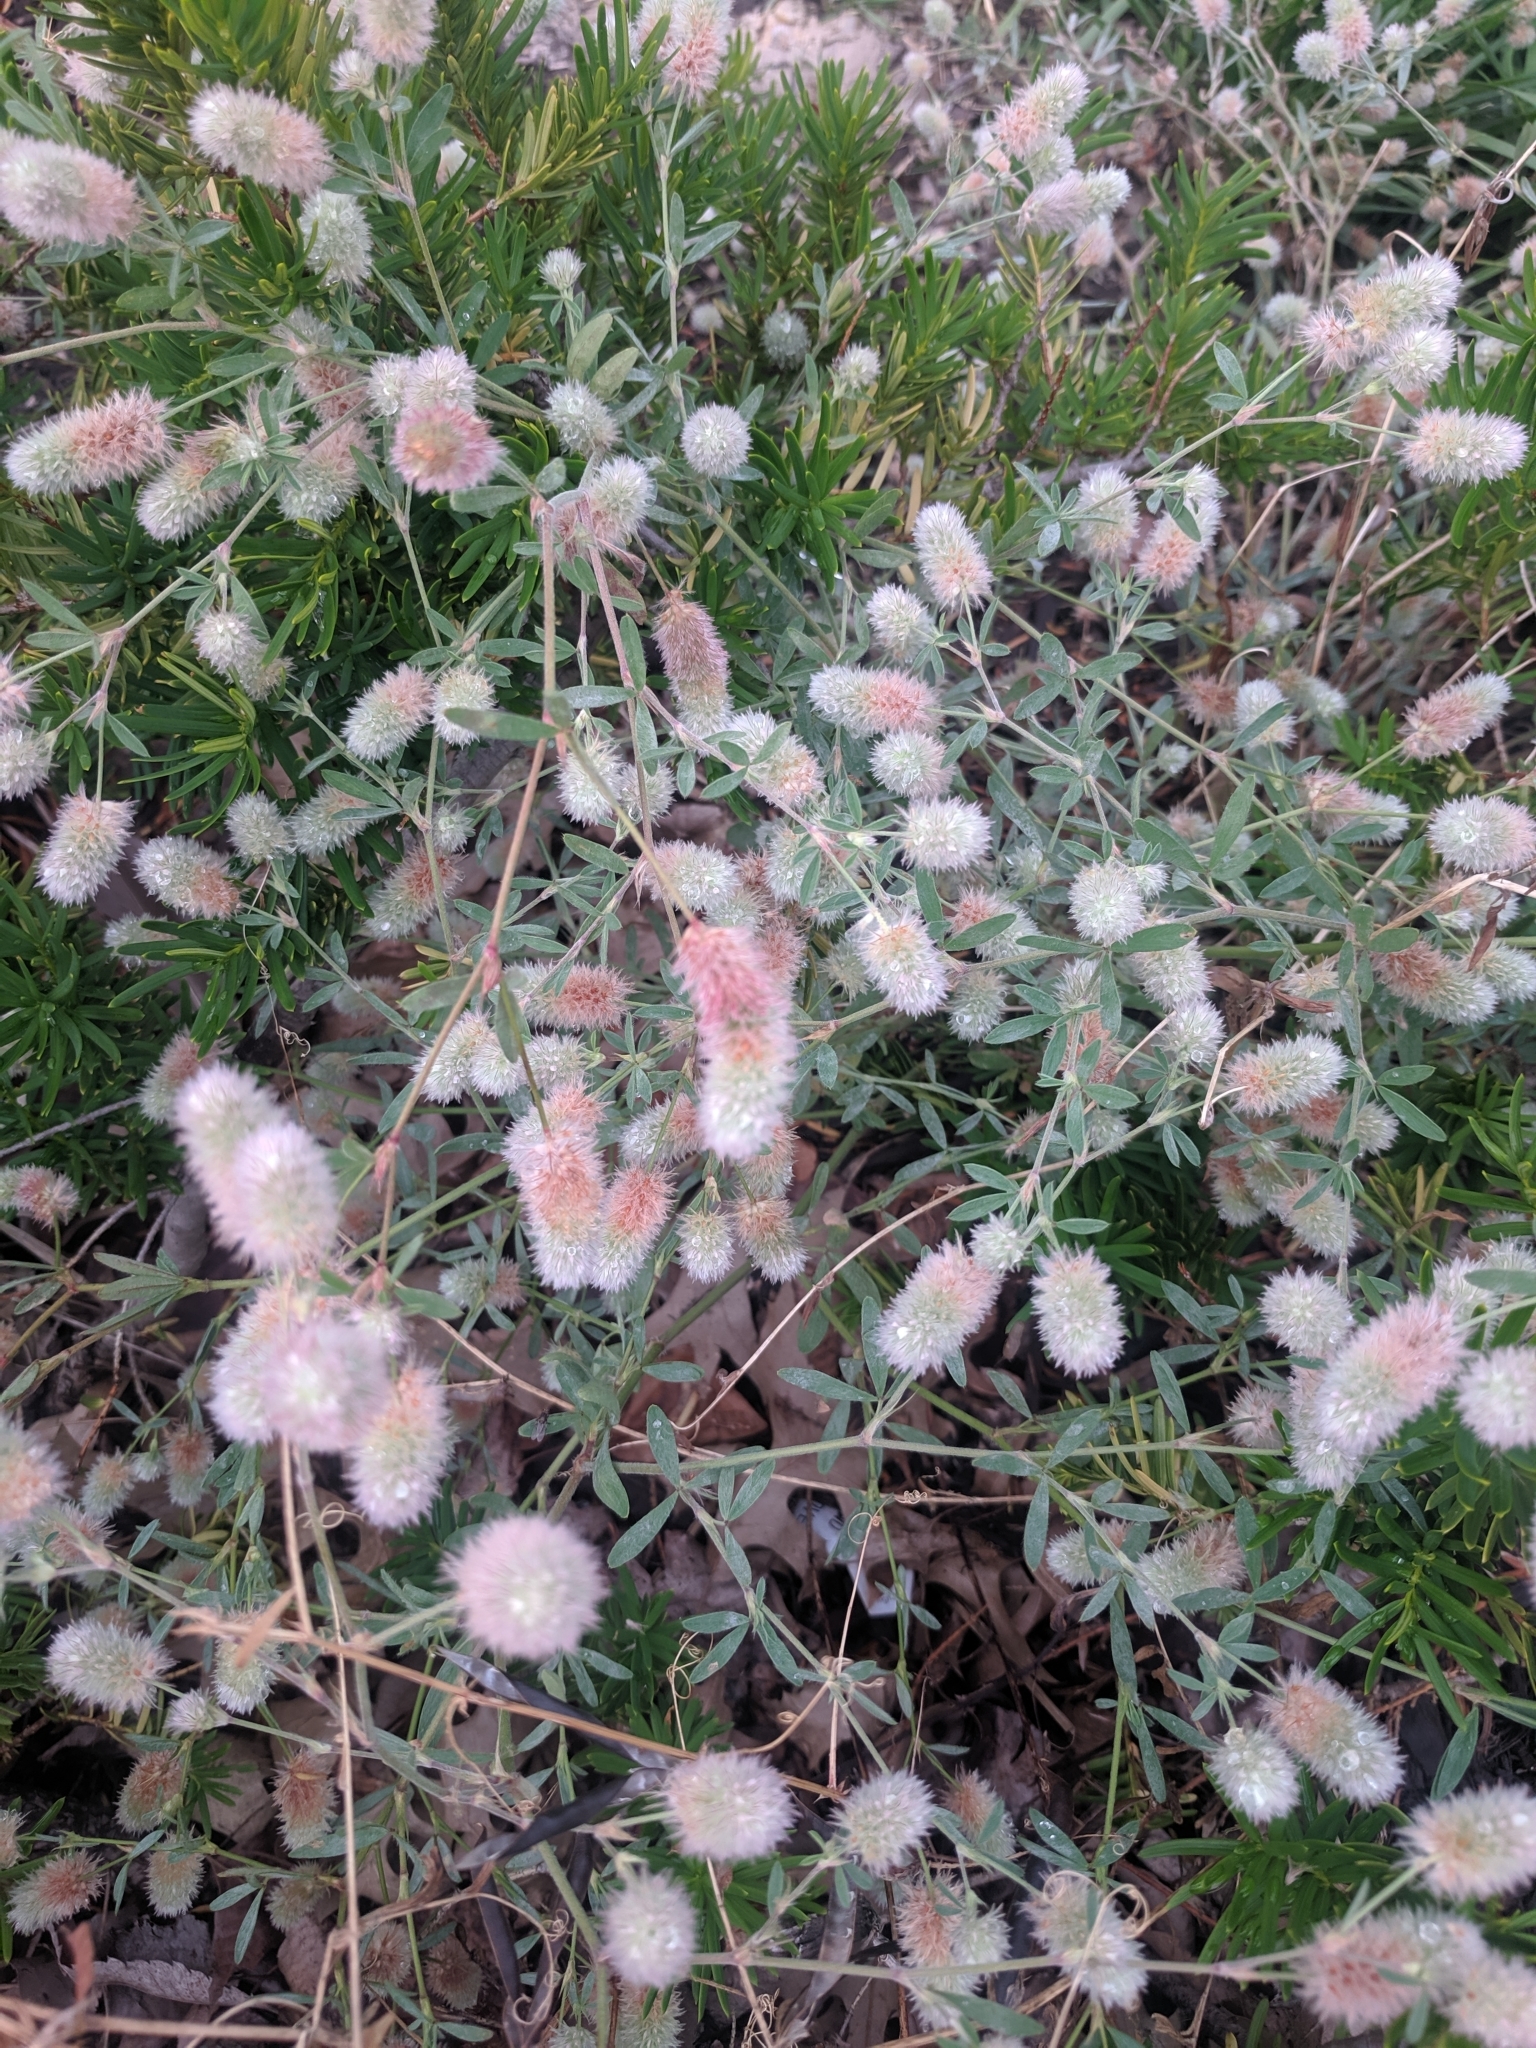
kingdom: Plantae
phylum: Tracheophyta
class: Magnoliopsida
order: Fabales
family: Fabaceae
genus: Trifolium
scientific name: Trifolium arvense
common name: Hare's-foot clover
